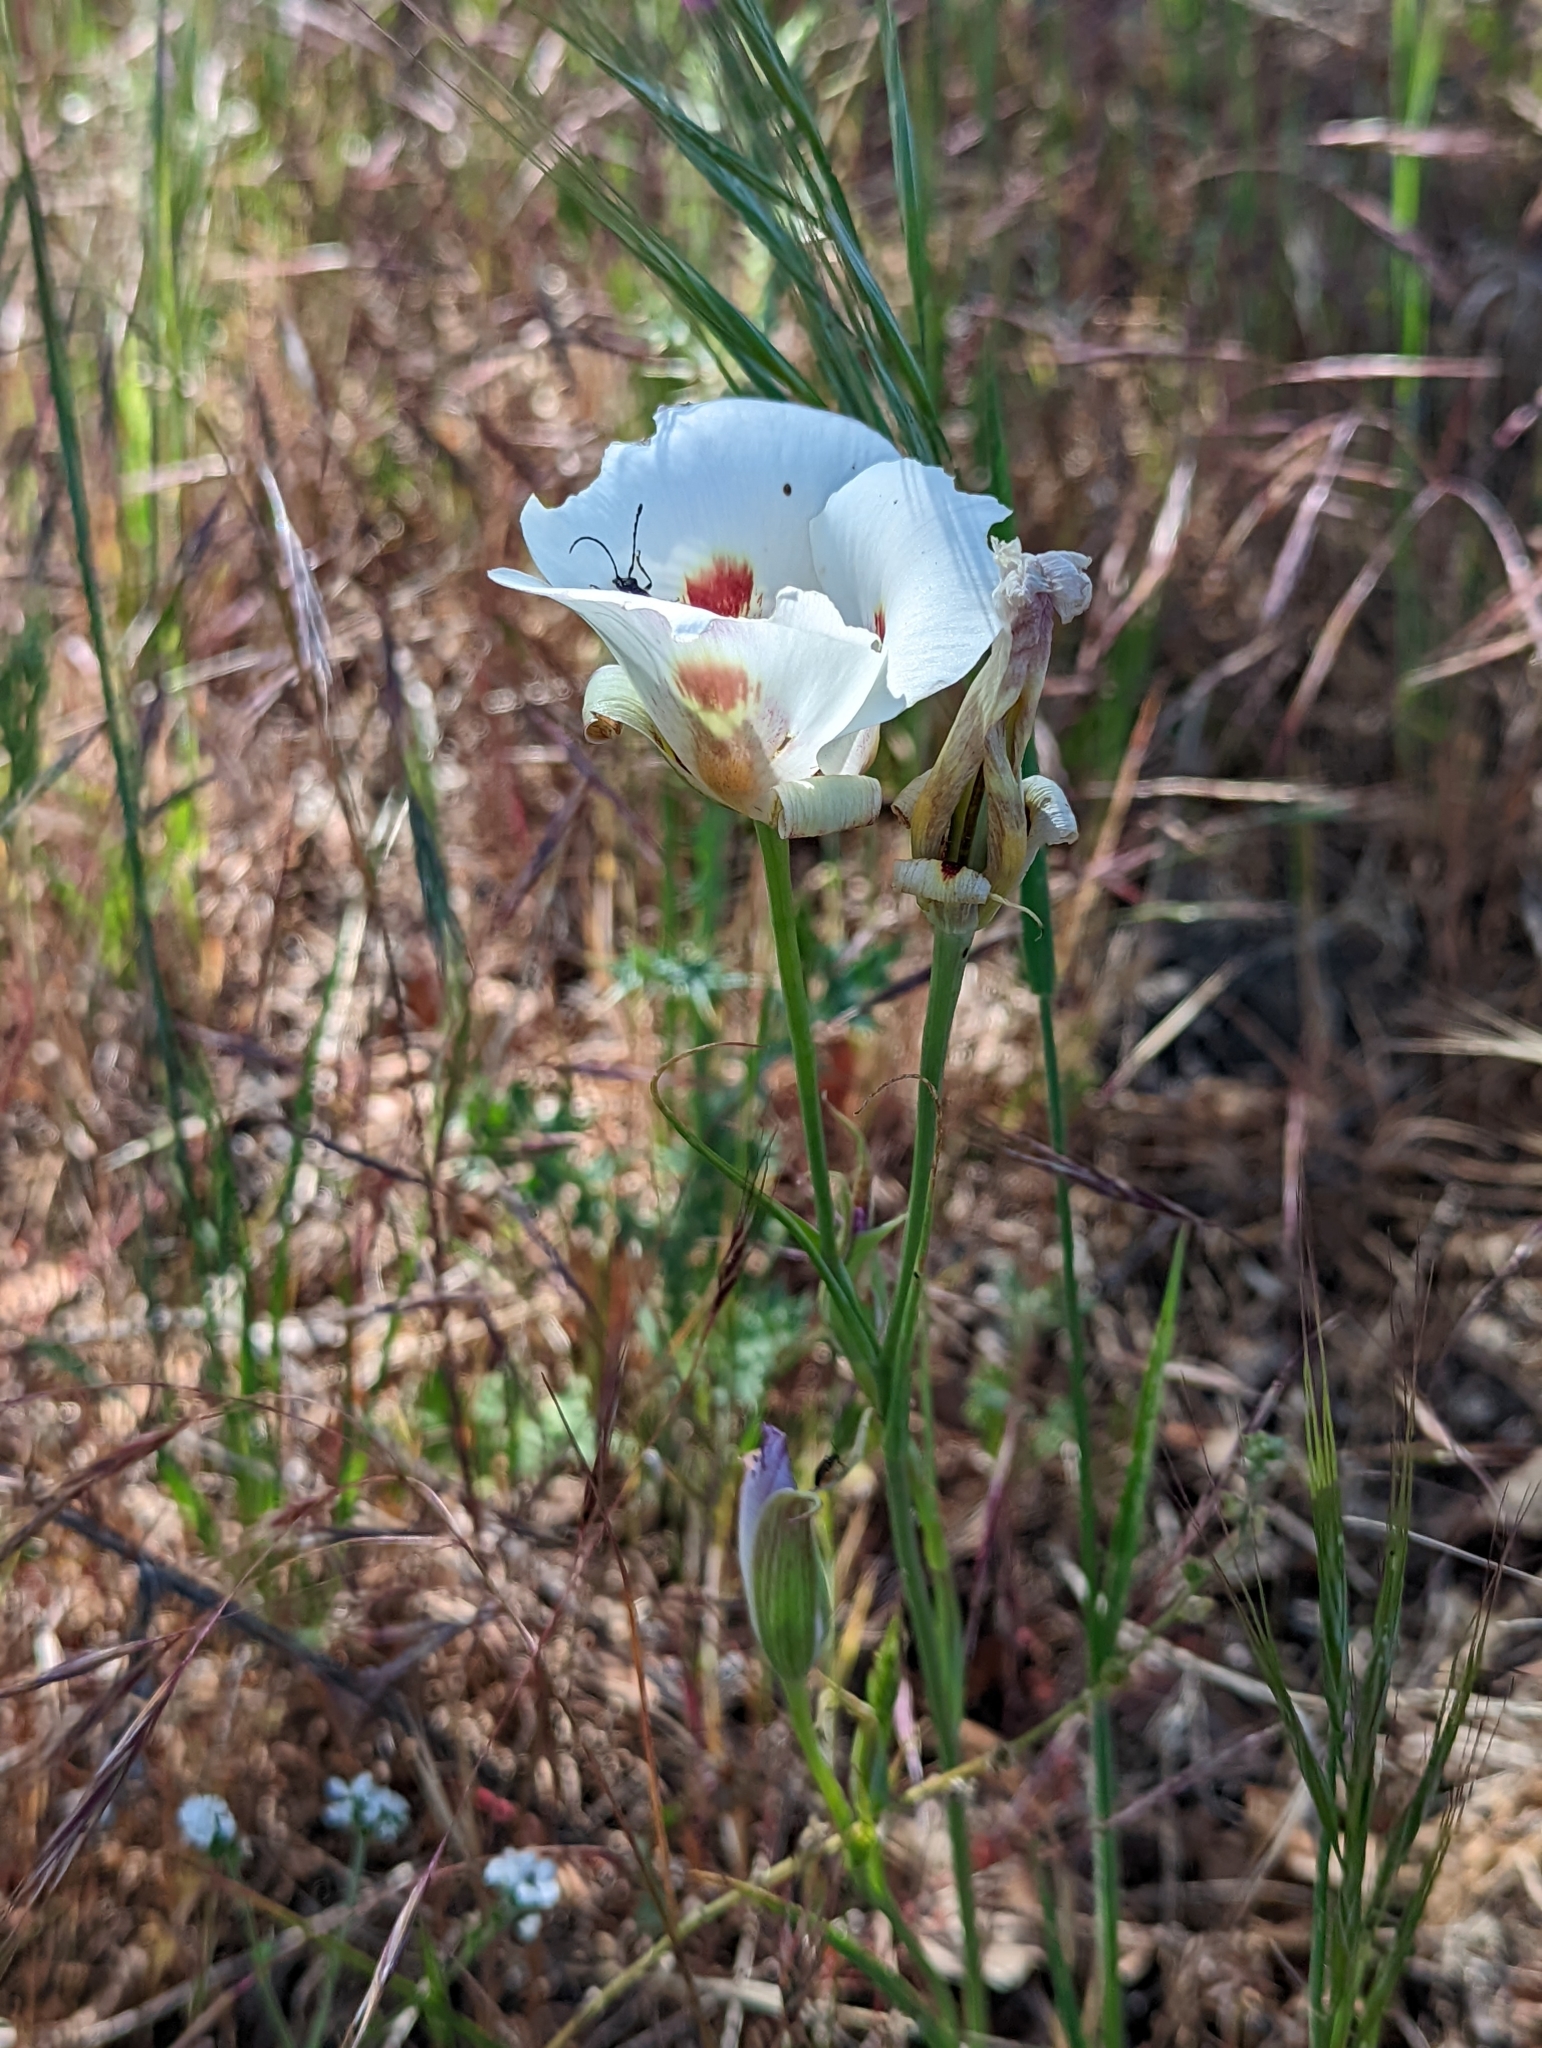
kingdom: Plantae
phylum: Tracheophyta
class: Liliopsida
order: Liliales
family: Liliaceae
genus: Calochortus
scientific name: Calochortus venustus
